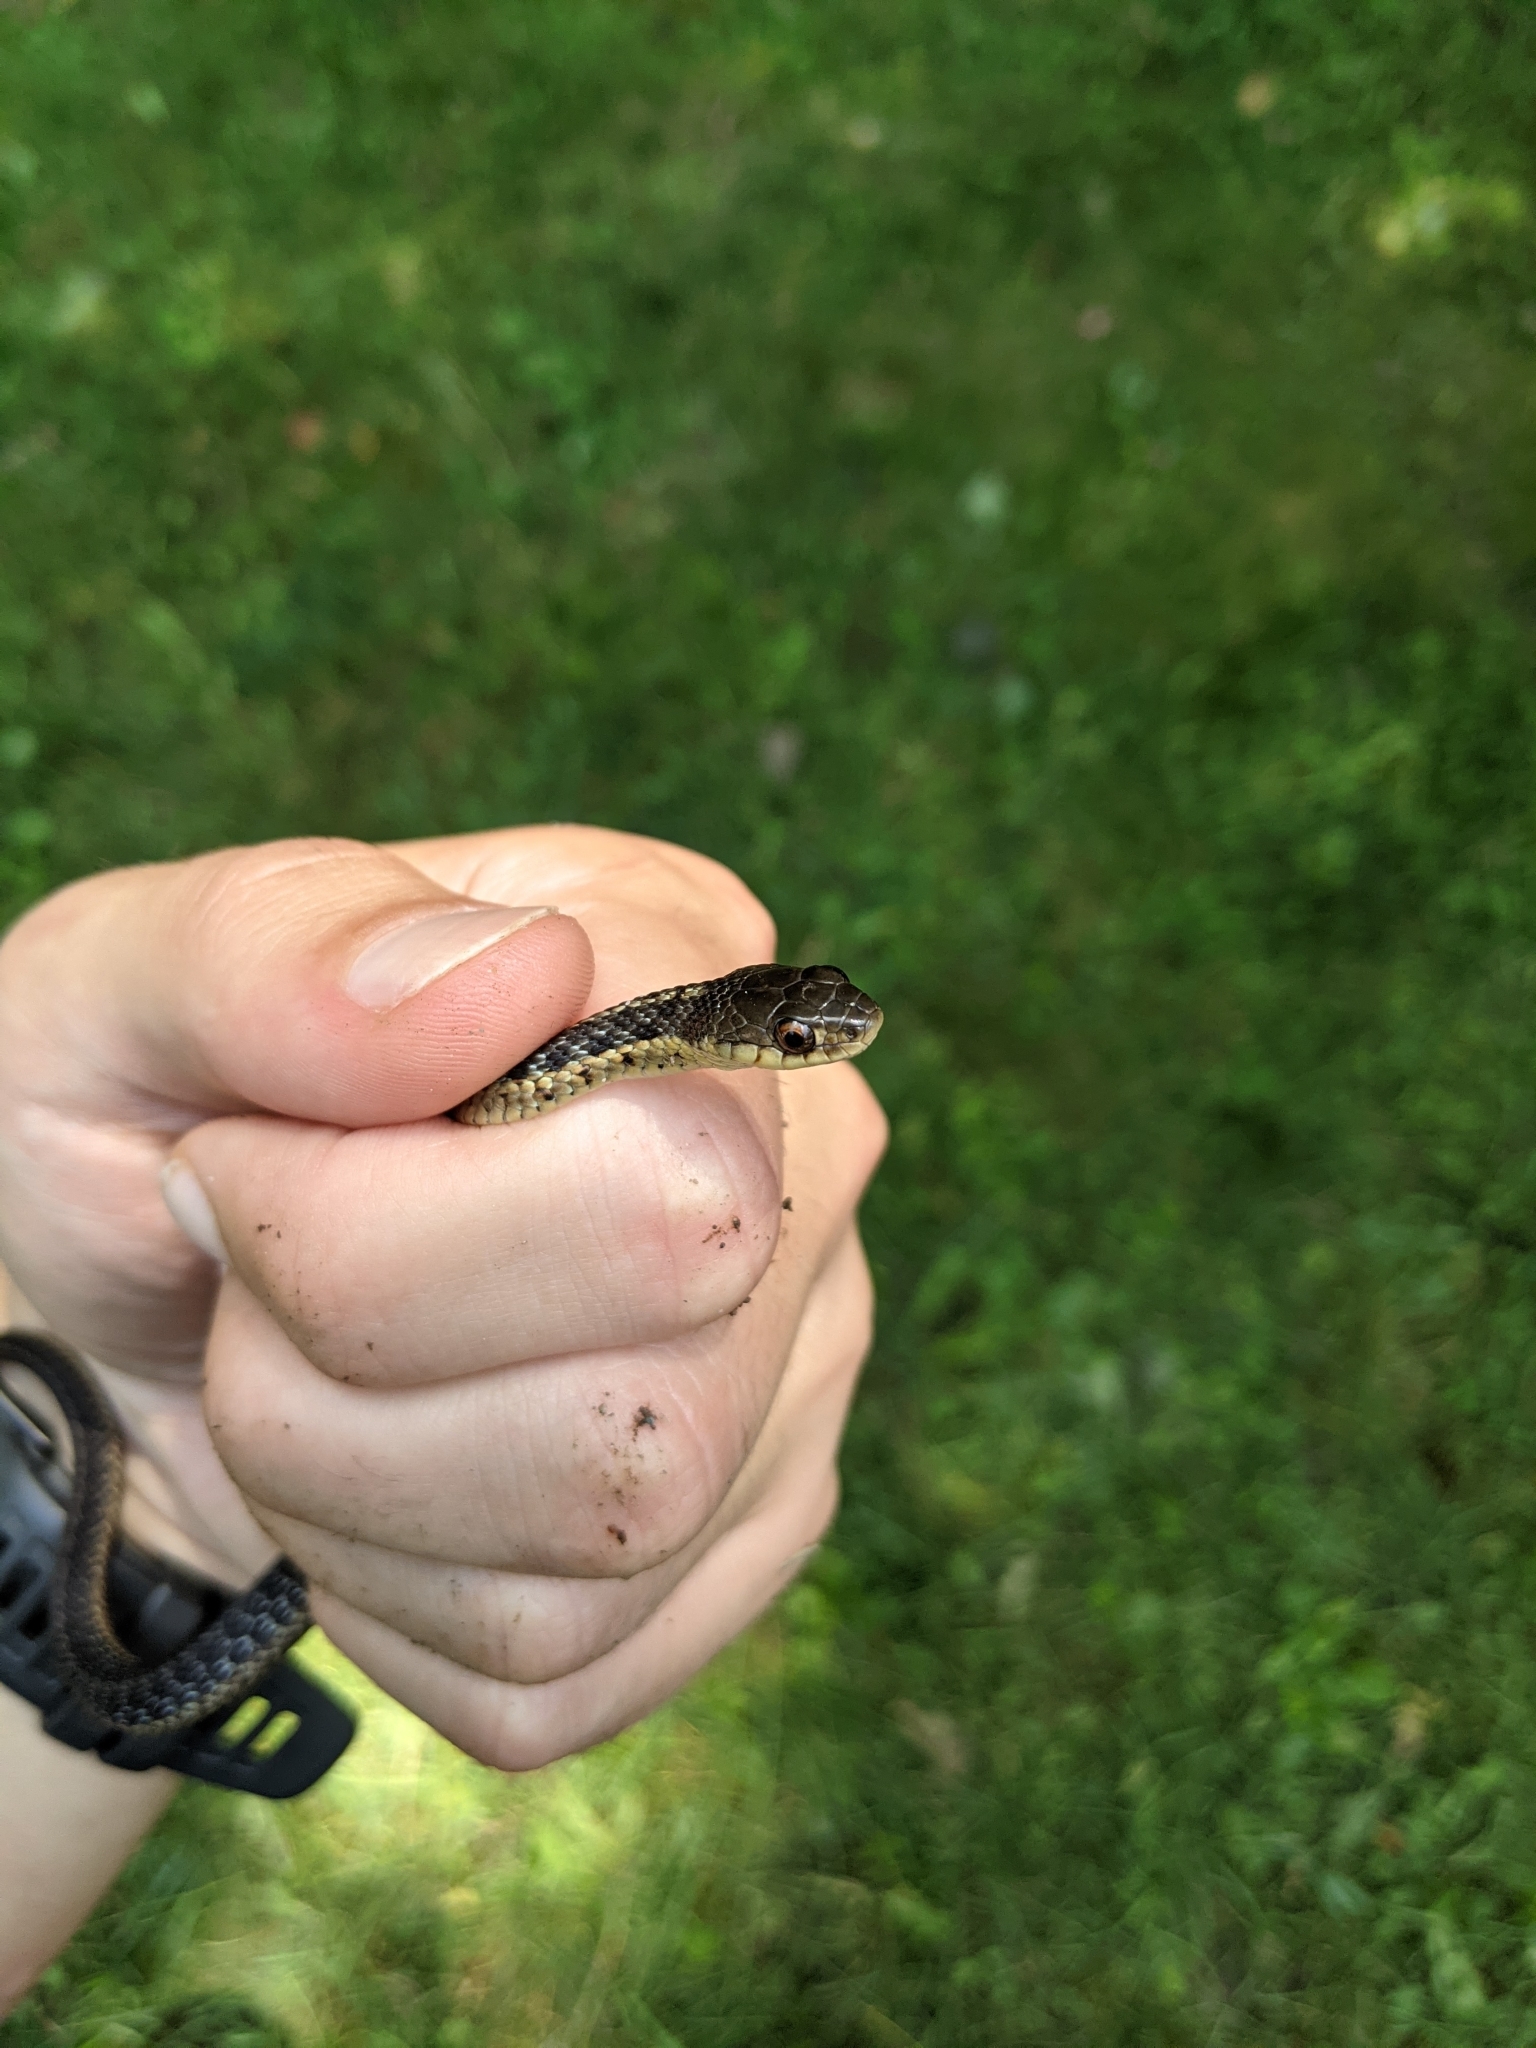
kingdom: Animalia
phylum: Chordata
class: Squamata
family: Colubridae
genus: Thamnophis
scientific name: Thamnophis sirtalis
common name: Common garter snake
